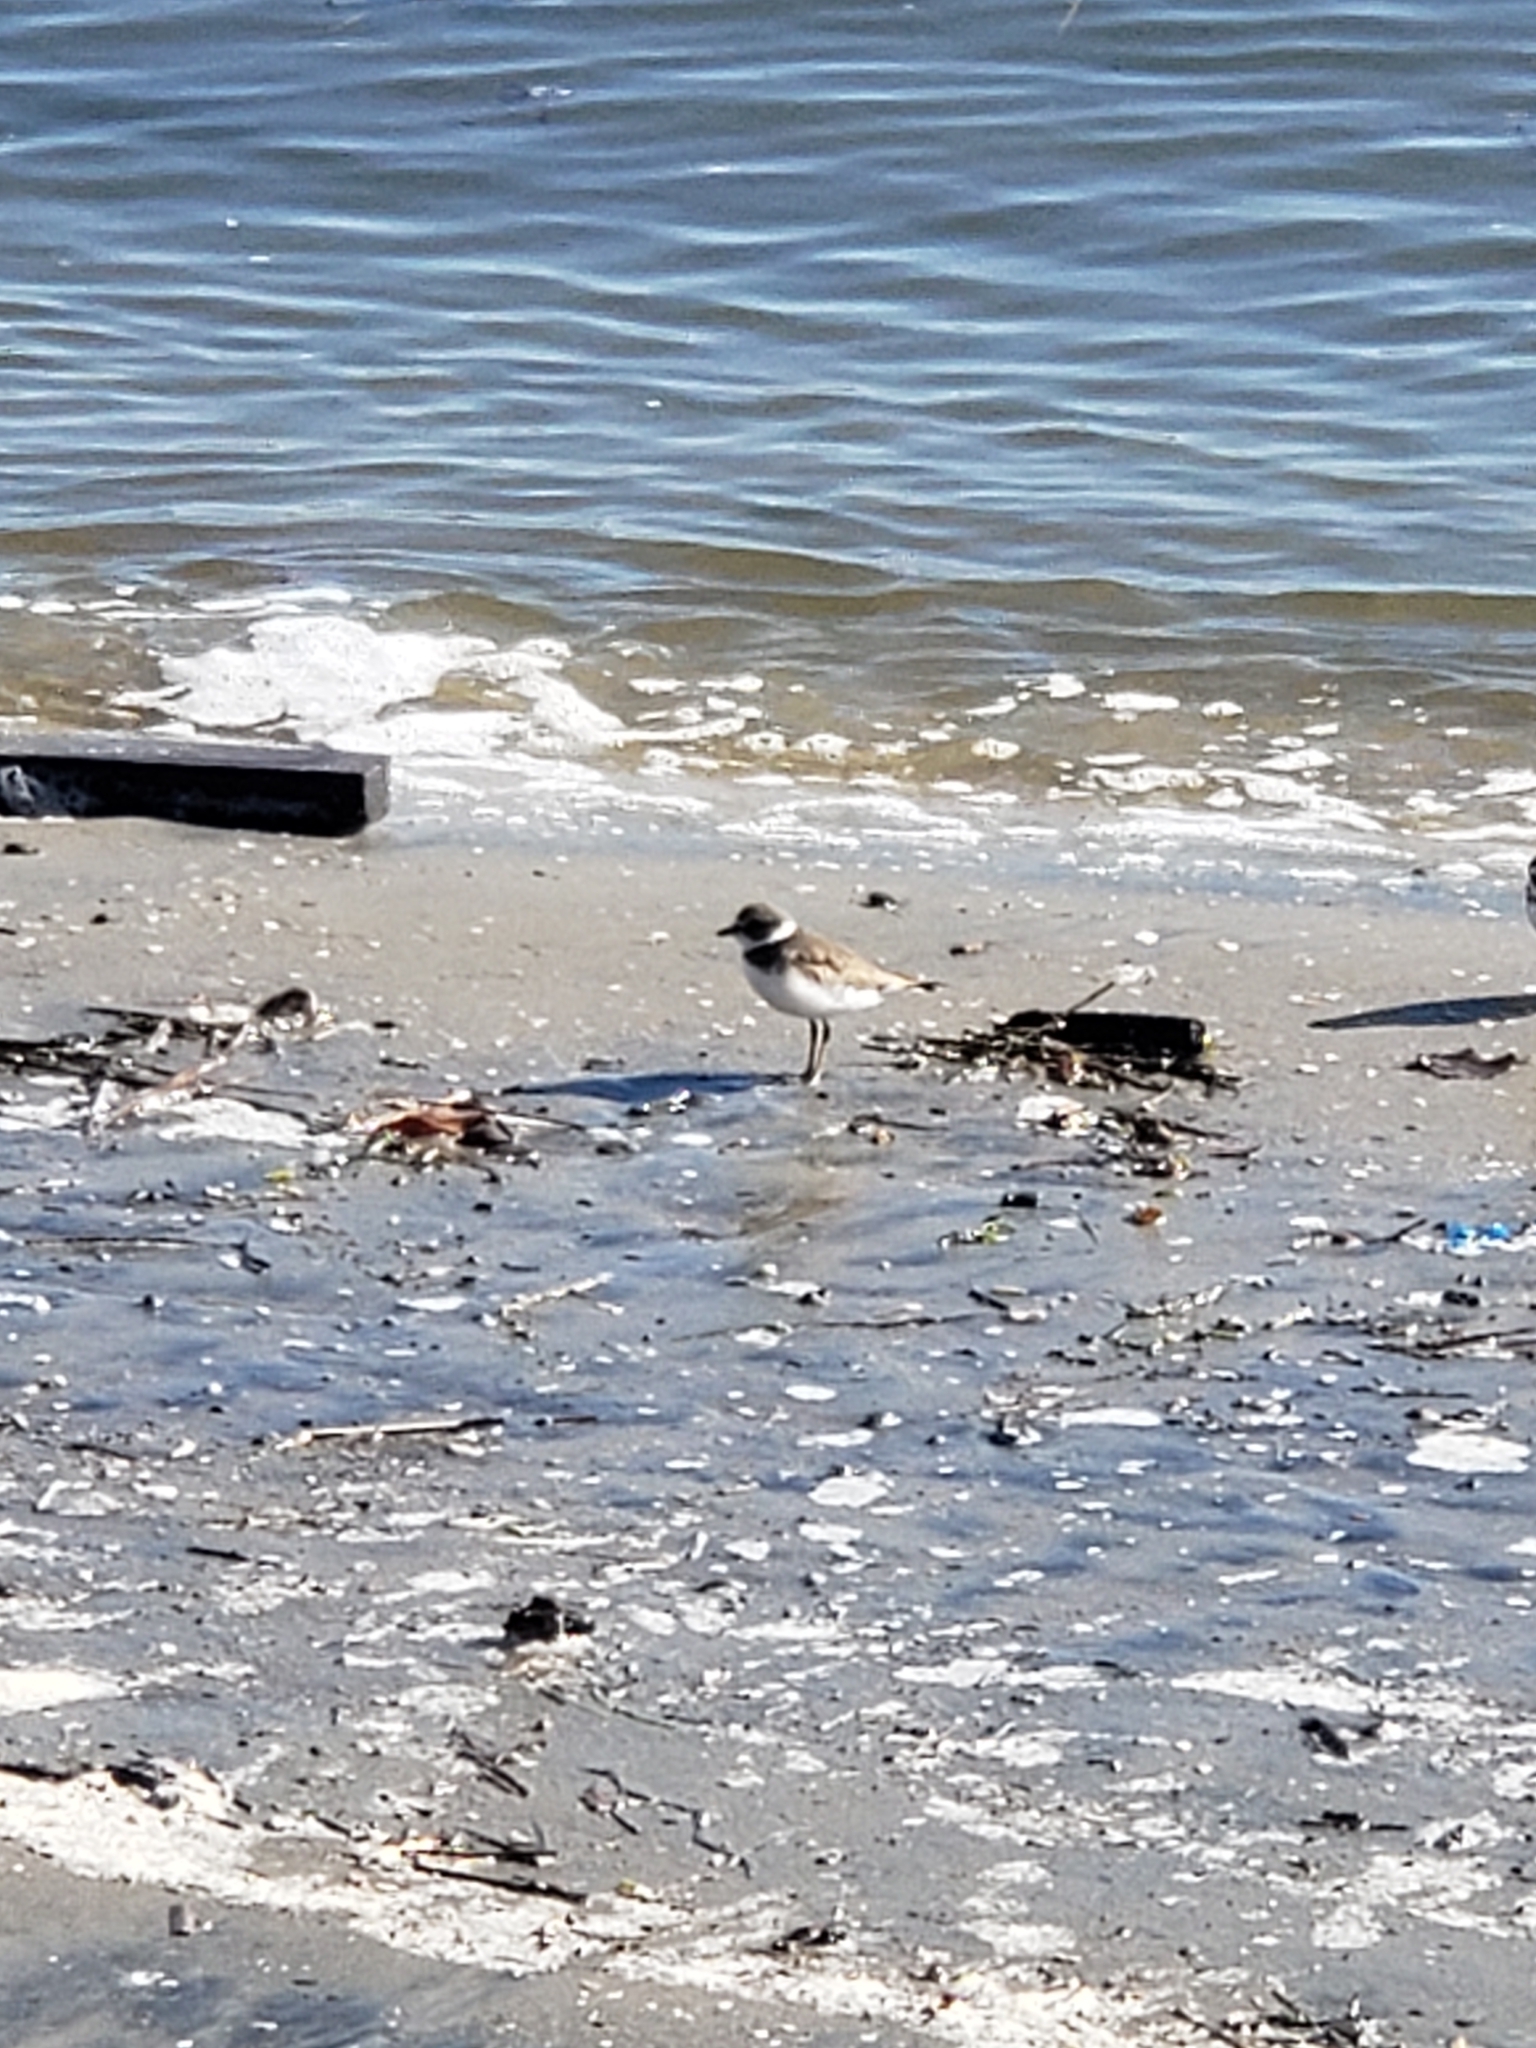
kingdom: Animalia
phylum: Chordata
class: Aves
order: Charadriiformes
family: Charadriidae
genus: Charadrius
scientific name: Charadrius semipalmatus
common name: Semipalmated plover
